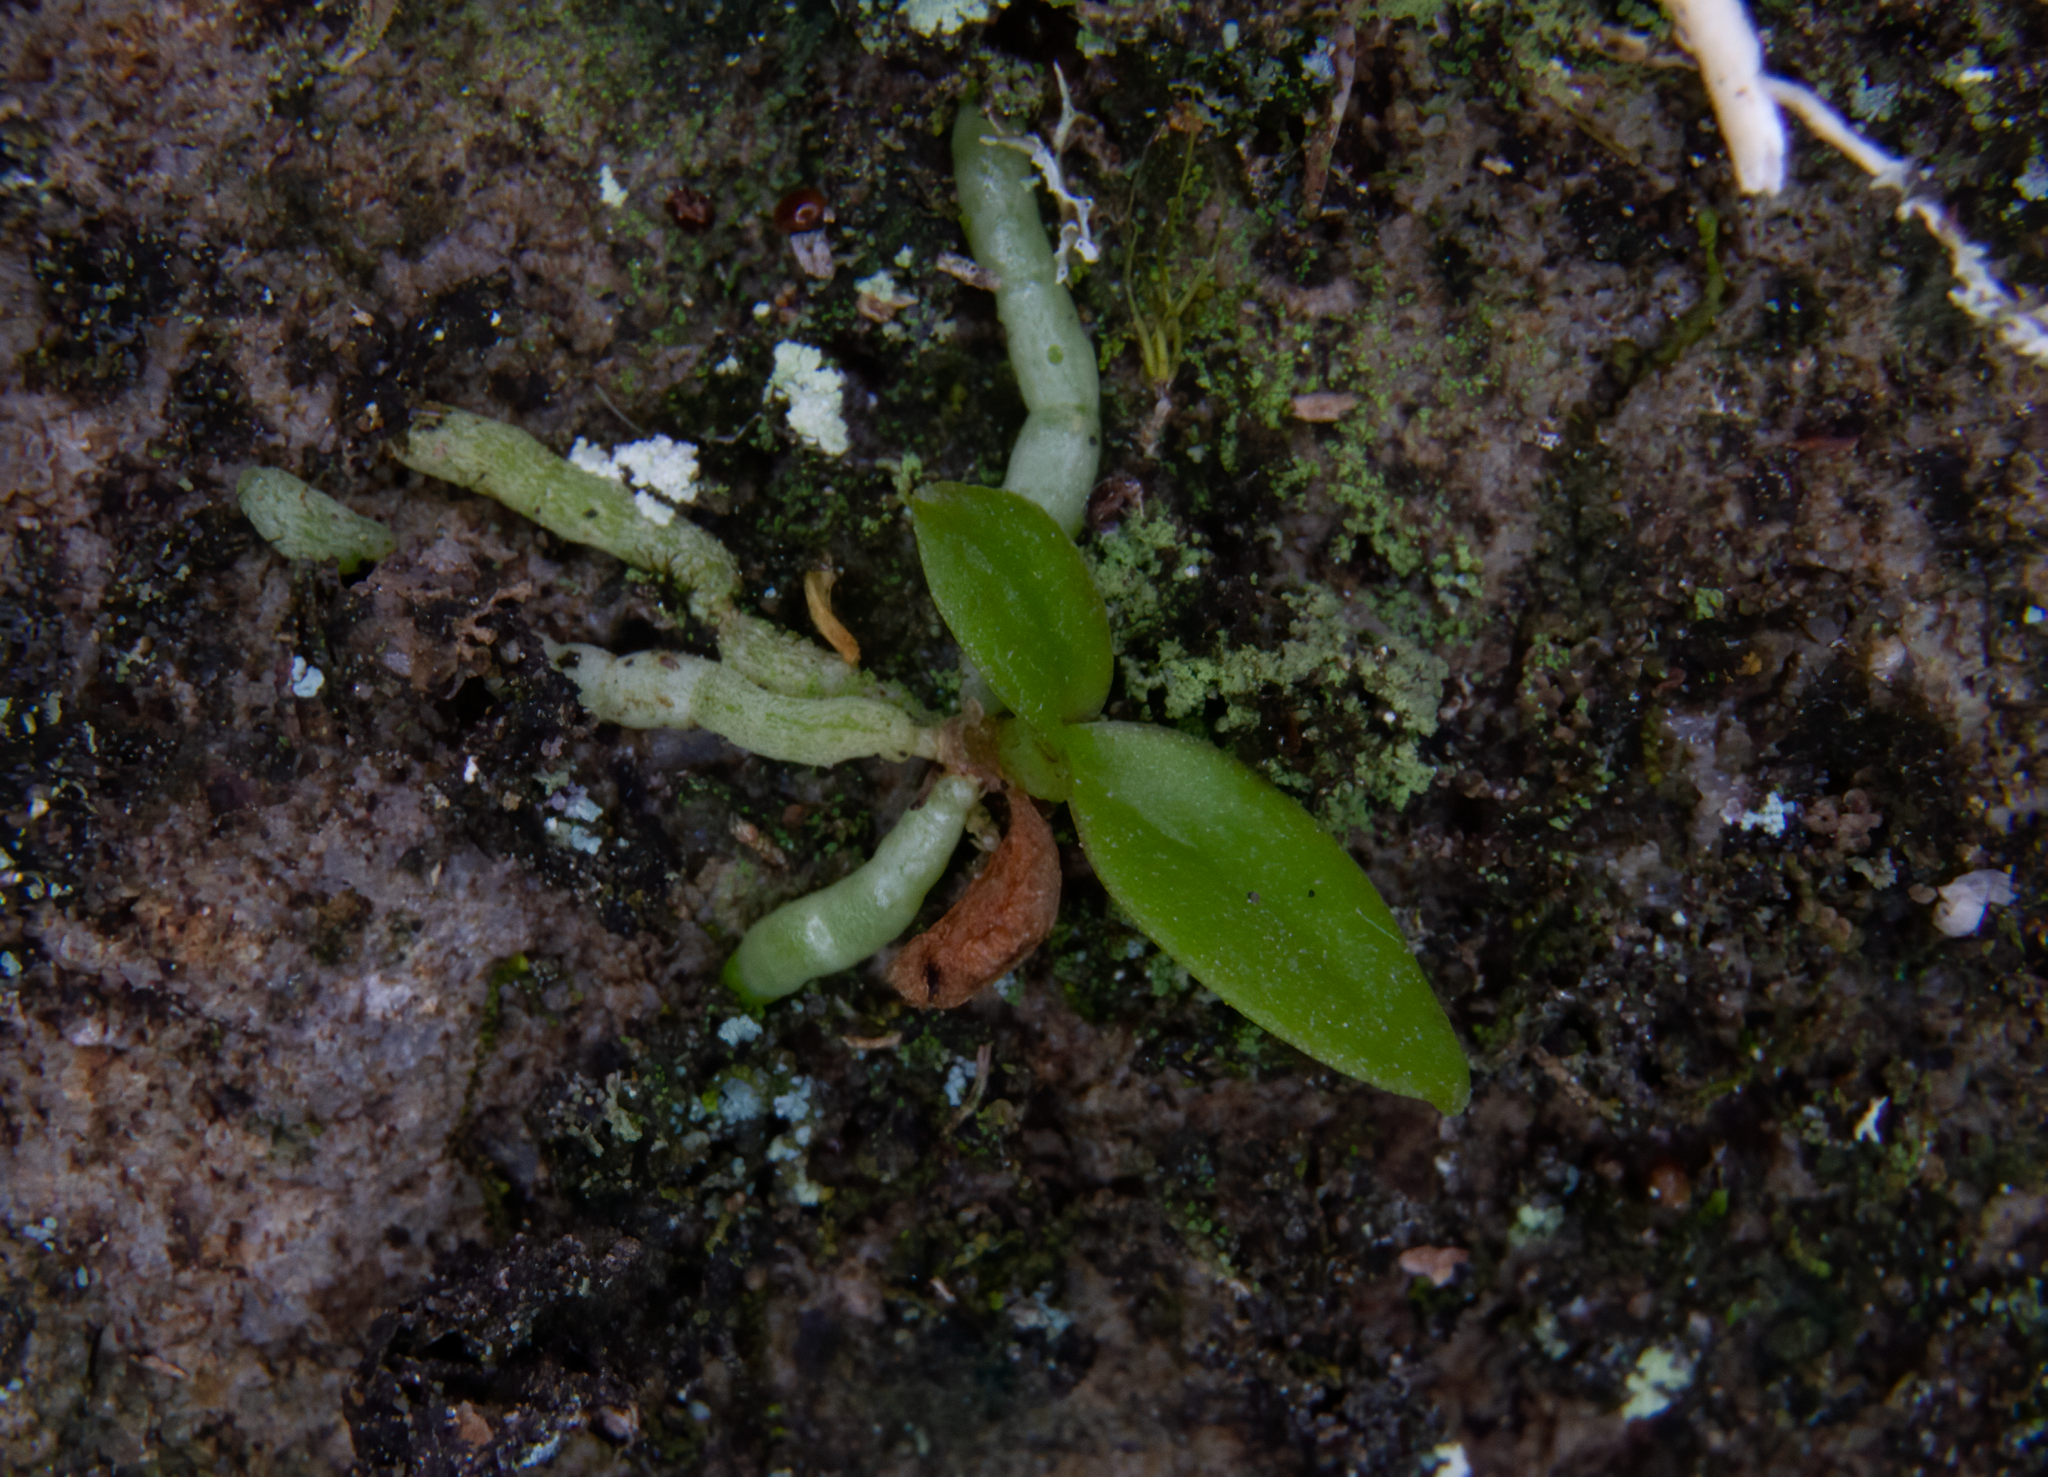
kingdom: Plantae
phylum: Tracheophyta
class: Liliopsida
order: Asparagales
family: Orchidaceae
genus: Drymoanthus
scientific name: Drymoanthus adversus
